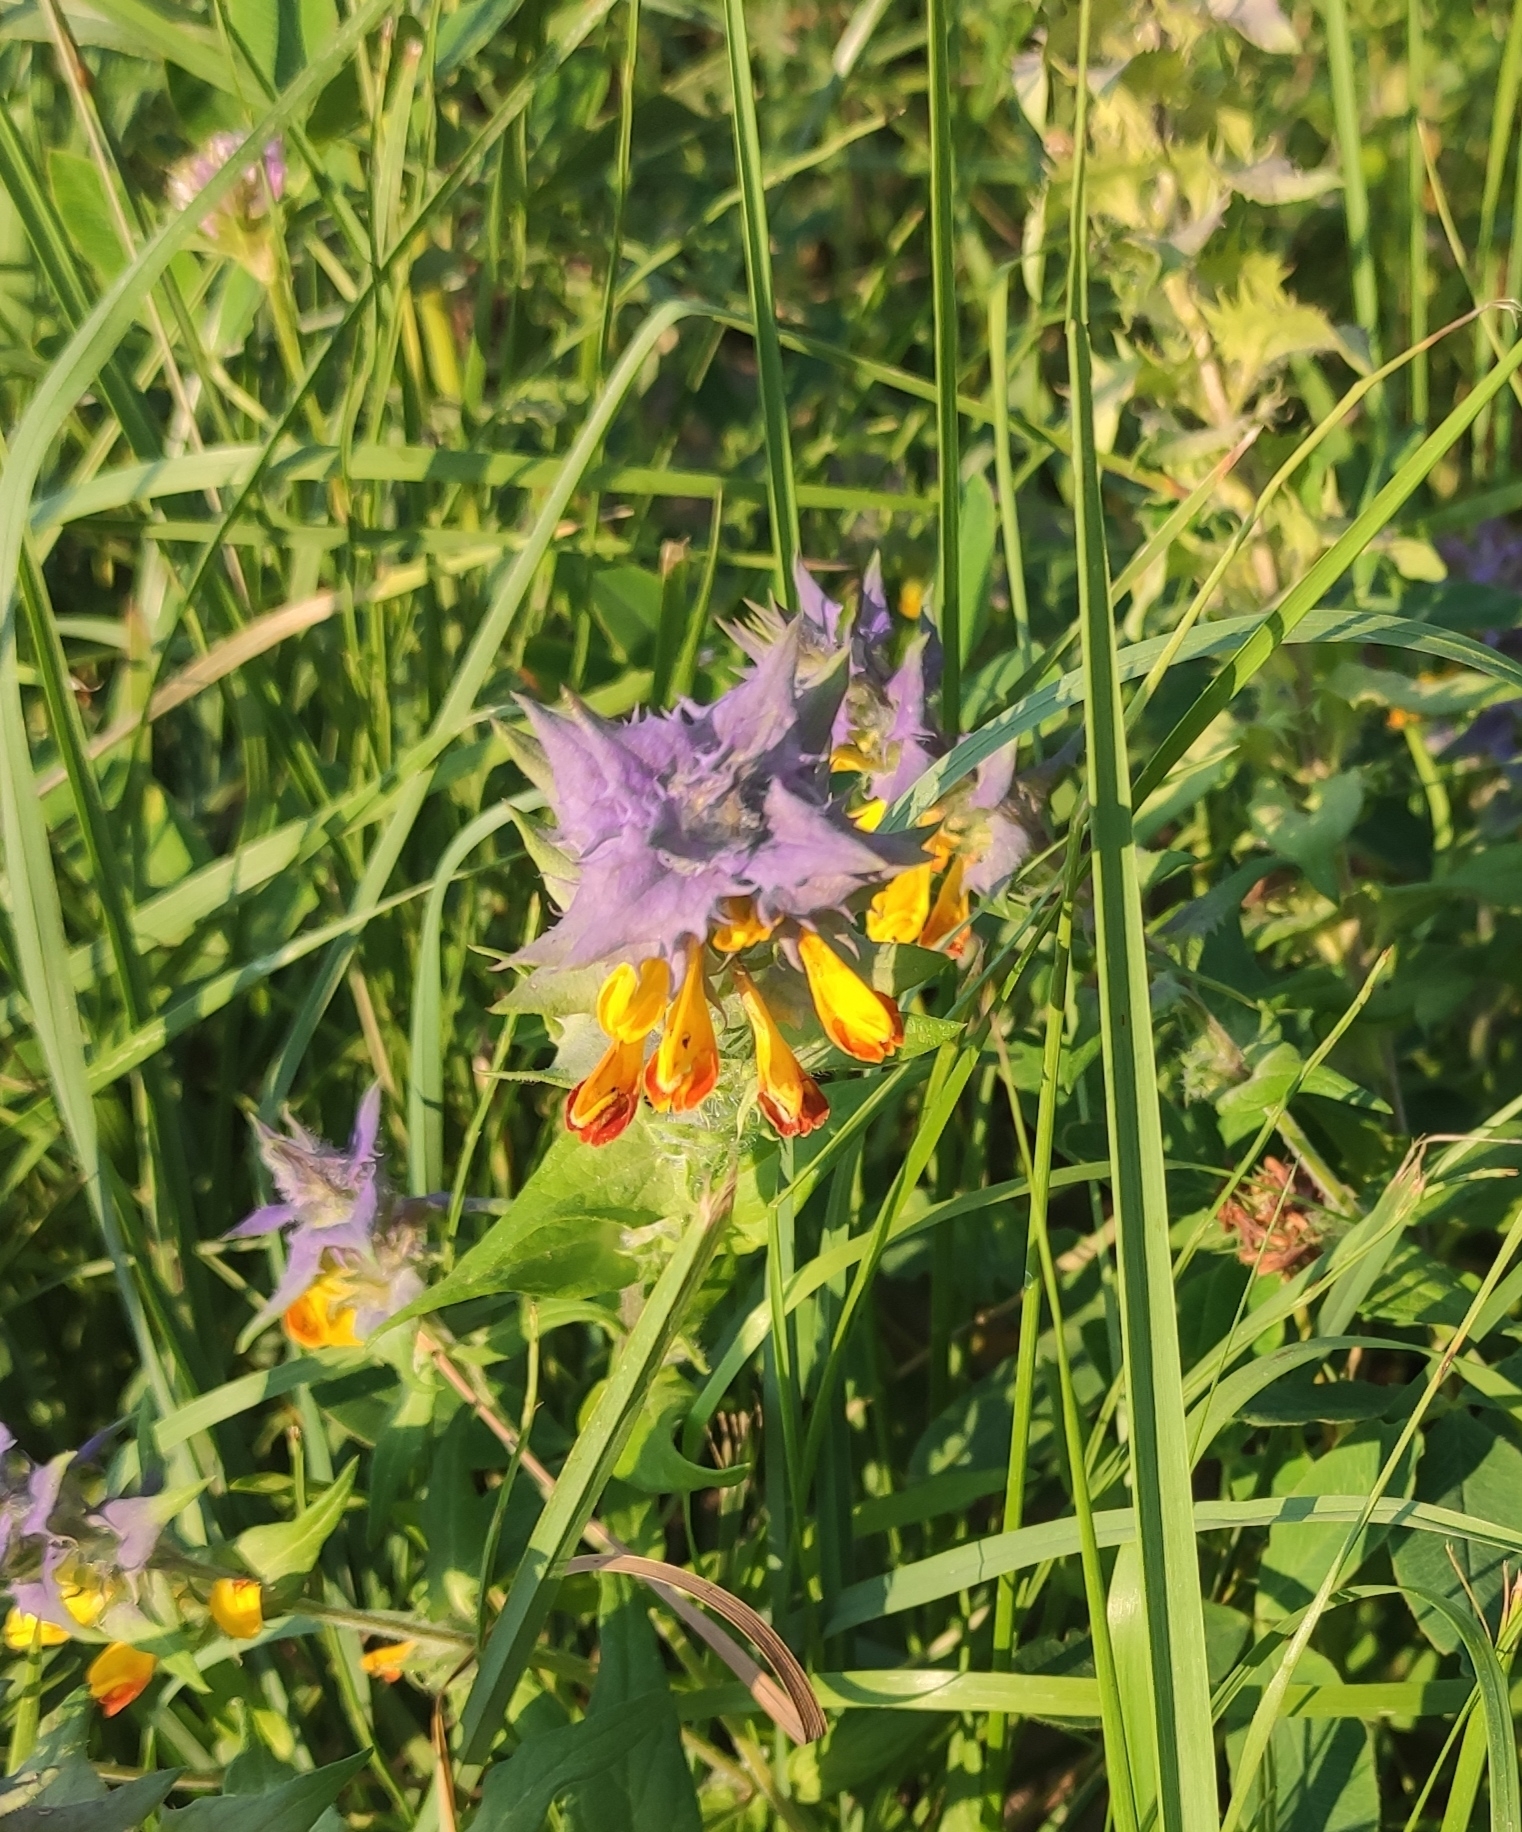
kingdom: Plantae
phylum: Tracheophyta
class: Magnoliopsida
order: Lamiales
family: Orobanchaceae
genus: Melampyrum
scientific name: Melampyrum nemorosum
